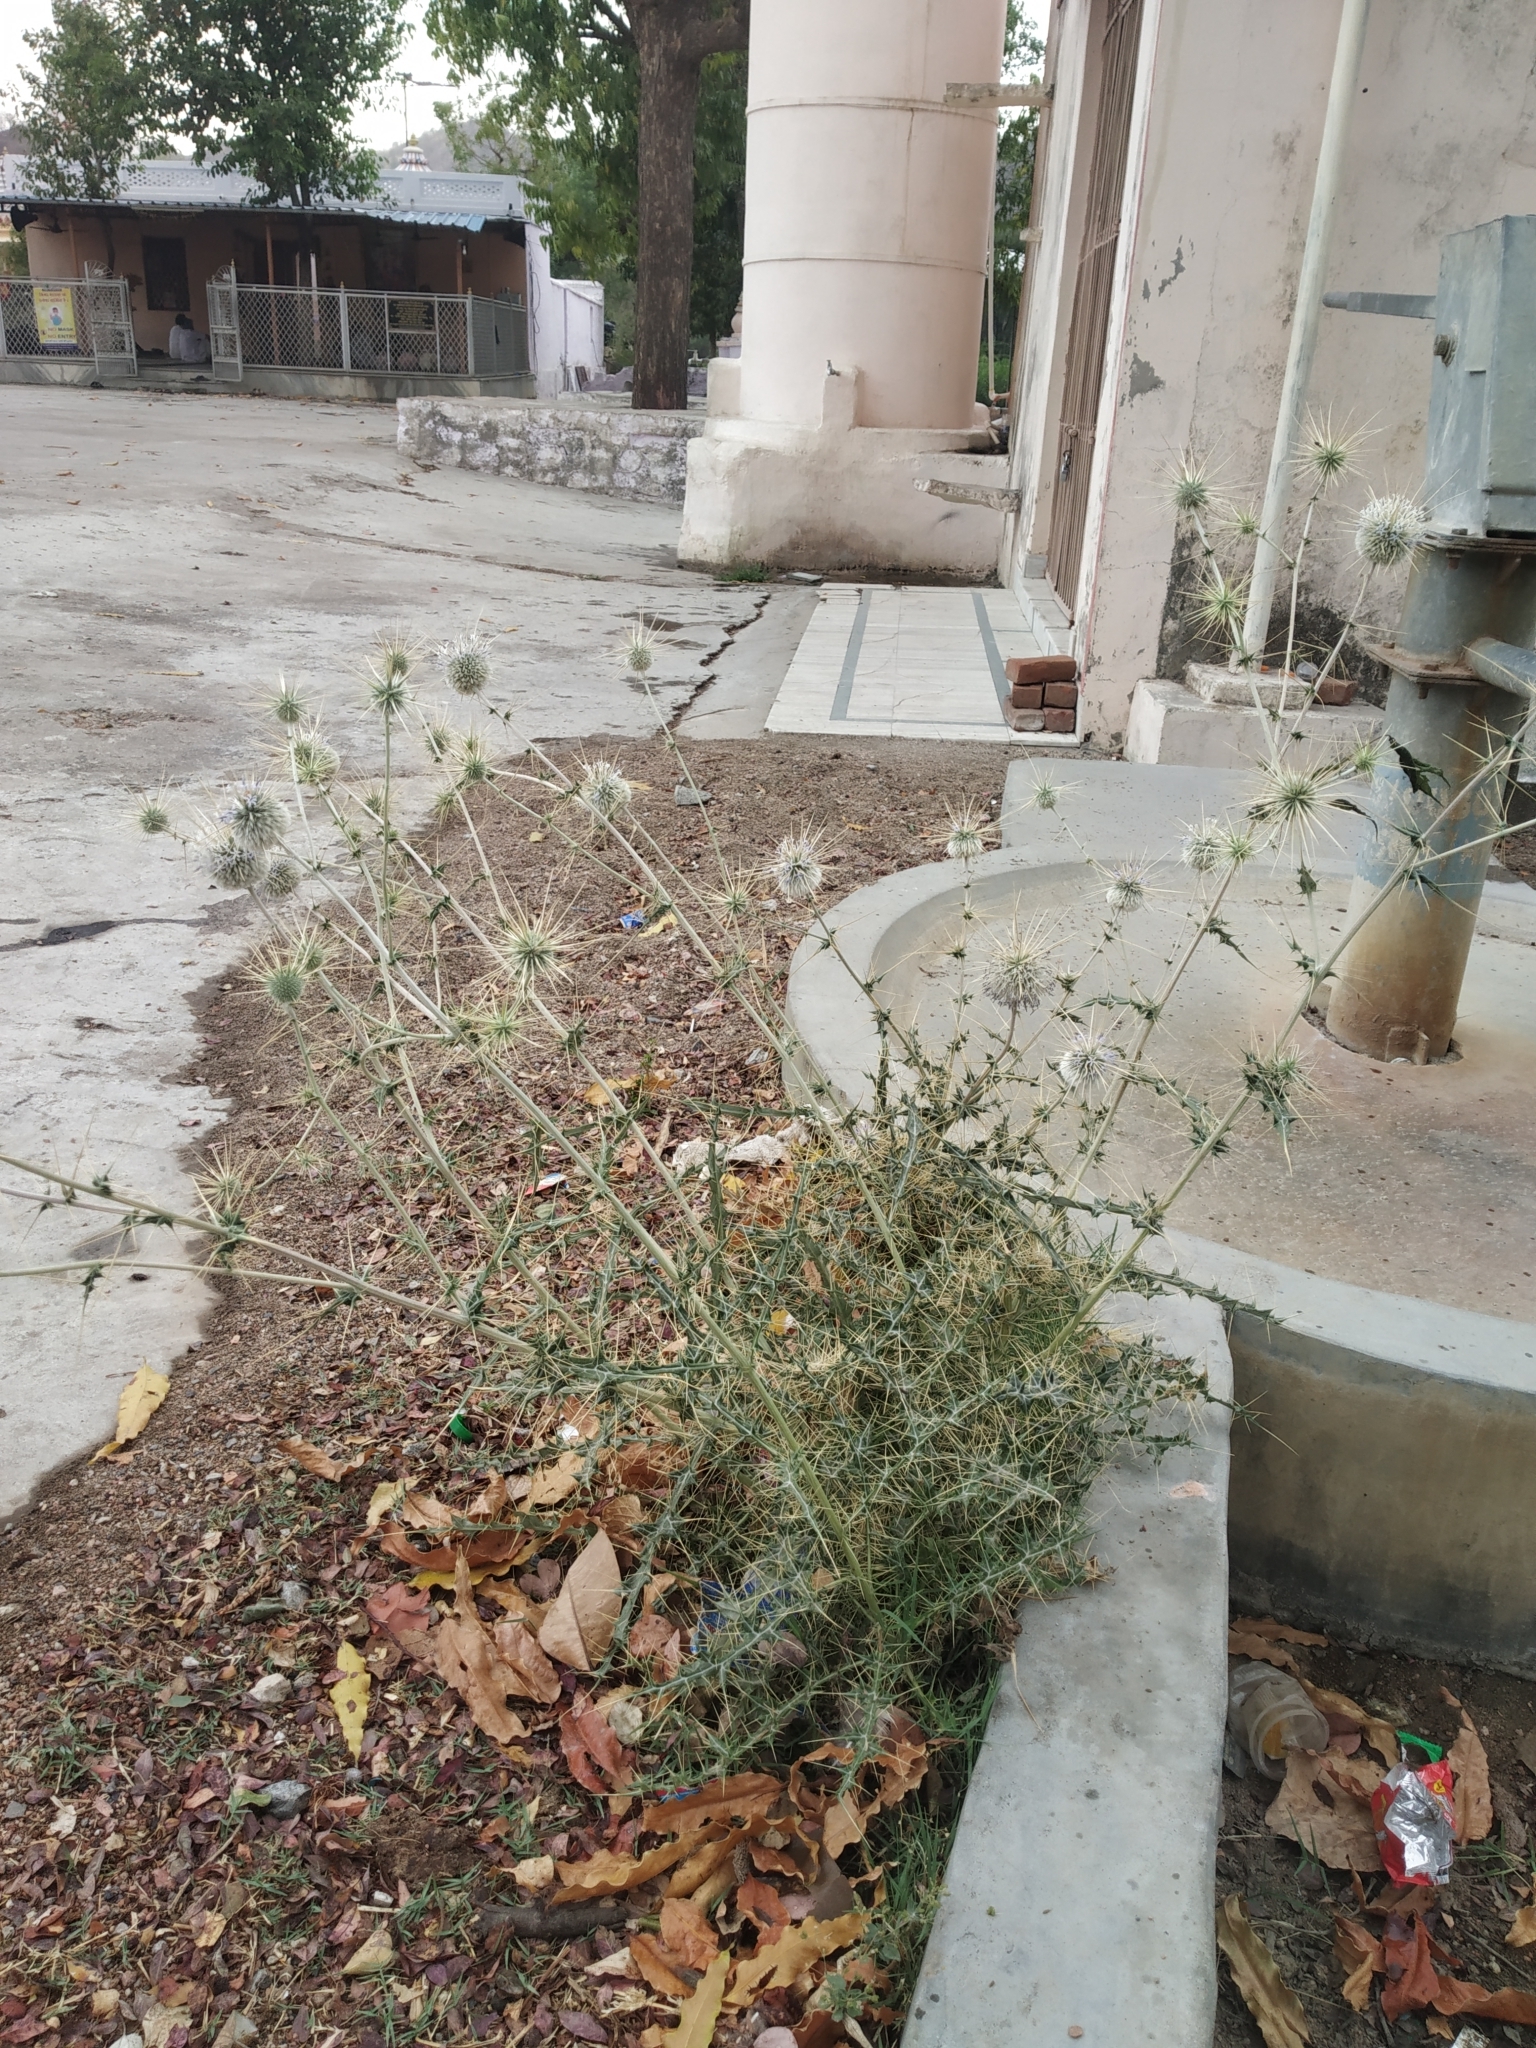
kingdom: Plantae
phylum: Tracheophyta
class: Magnoliopsida
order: Asterales
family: Asteraceae
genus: Echinops
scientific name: Echinops echinatus
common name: Indian globe thistle
